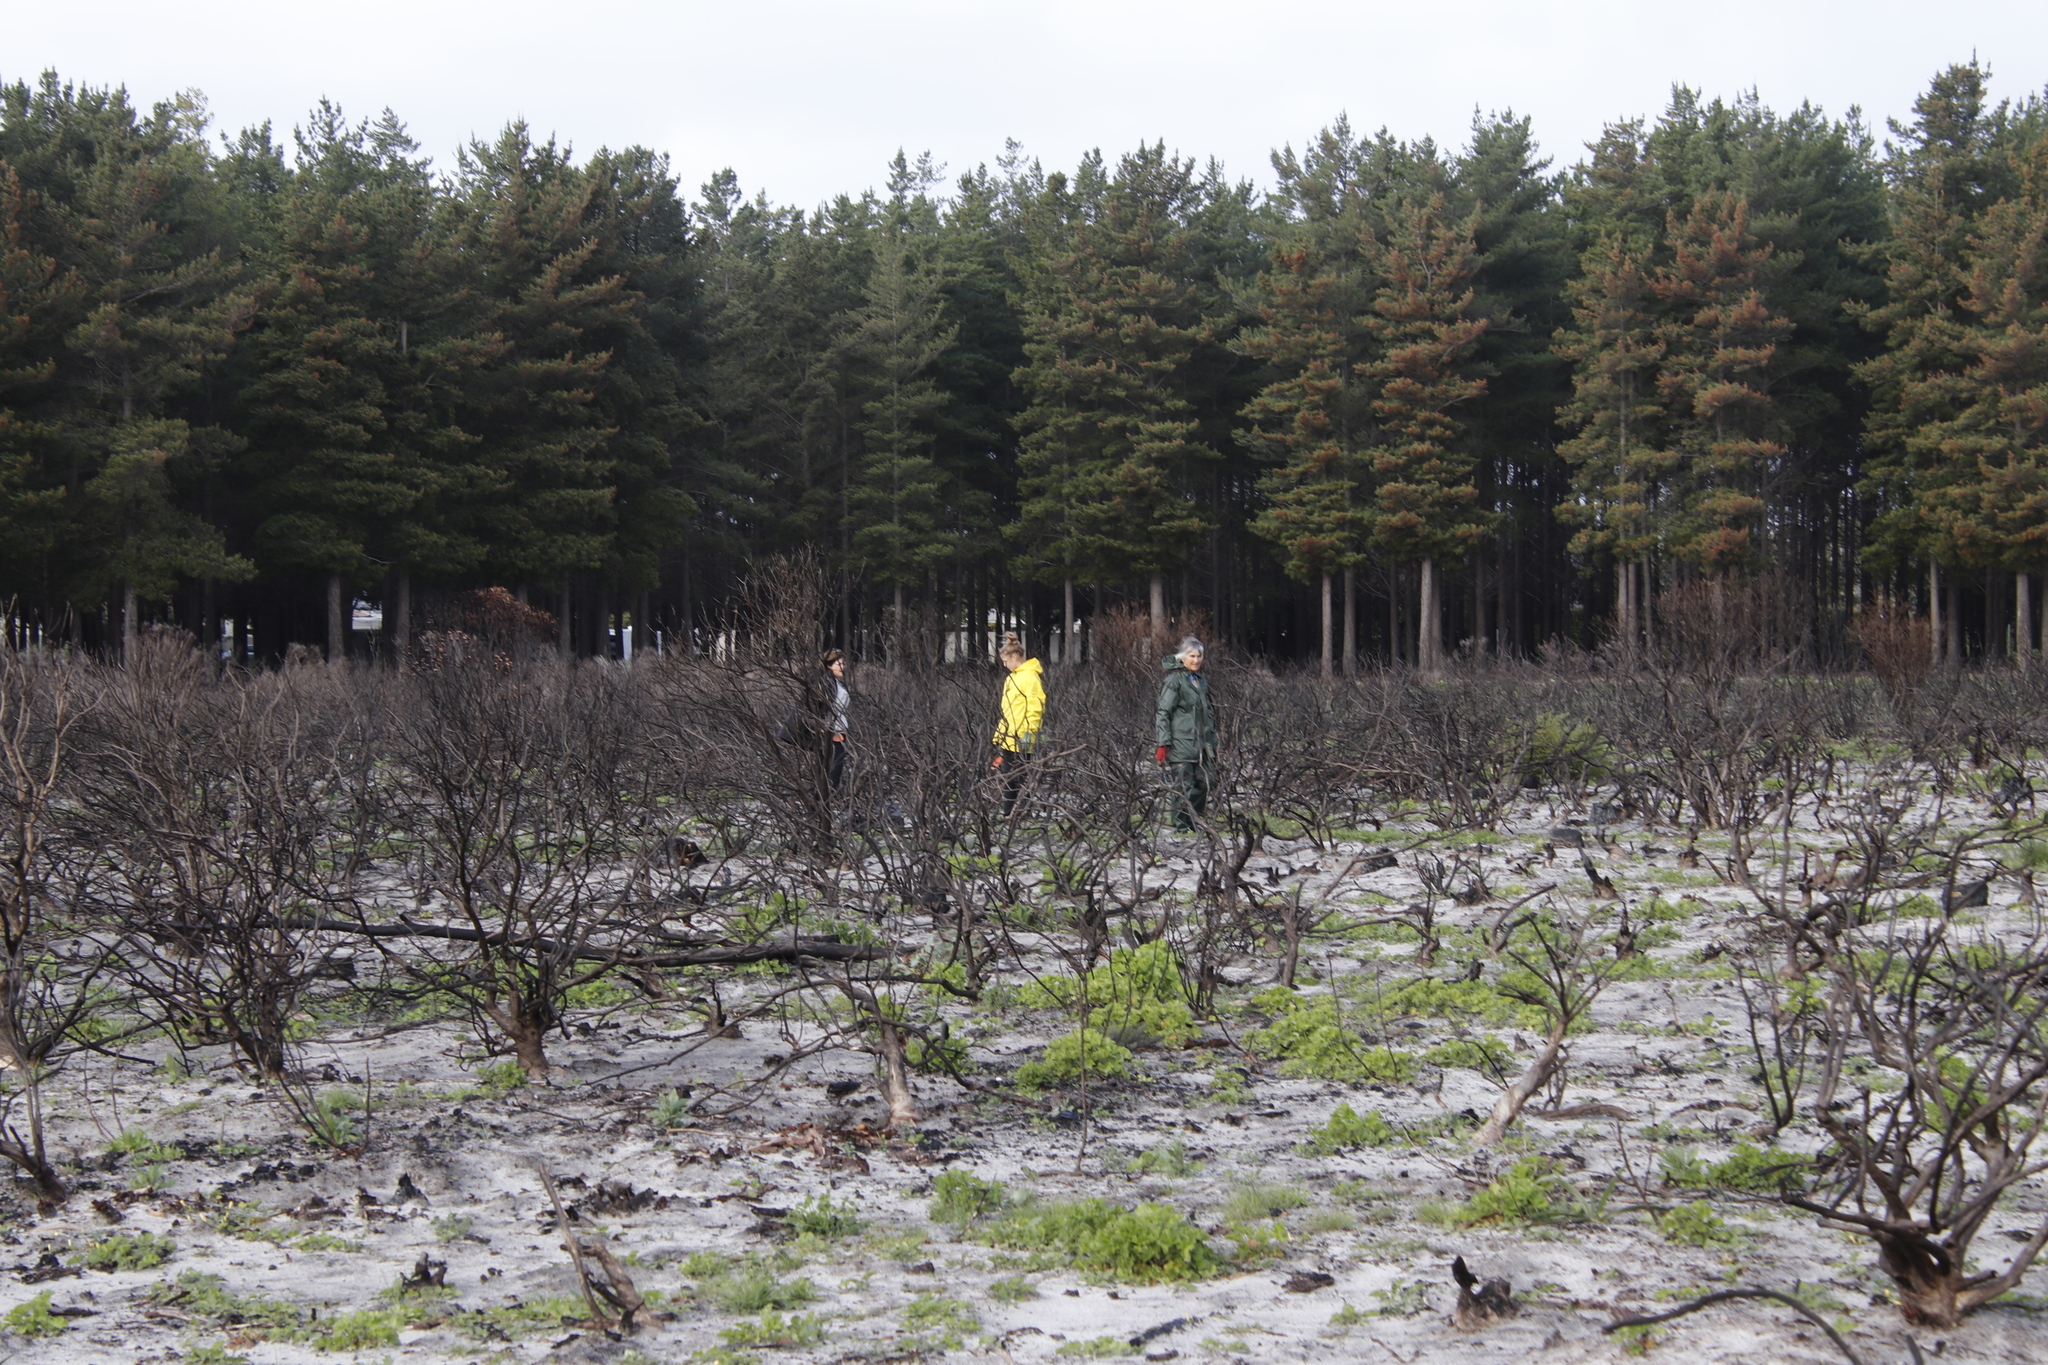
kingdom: Plantae
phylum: Tracheophyta
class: Magnoliopsida
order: Geraniales
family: Geraniaceae
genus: Pelargonium
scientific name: Pelargonium cucullatum
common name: Tree pelargonium
